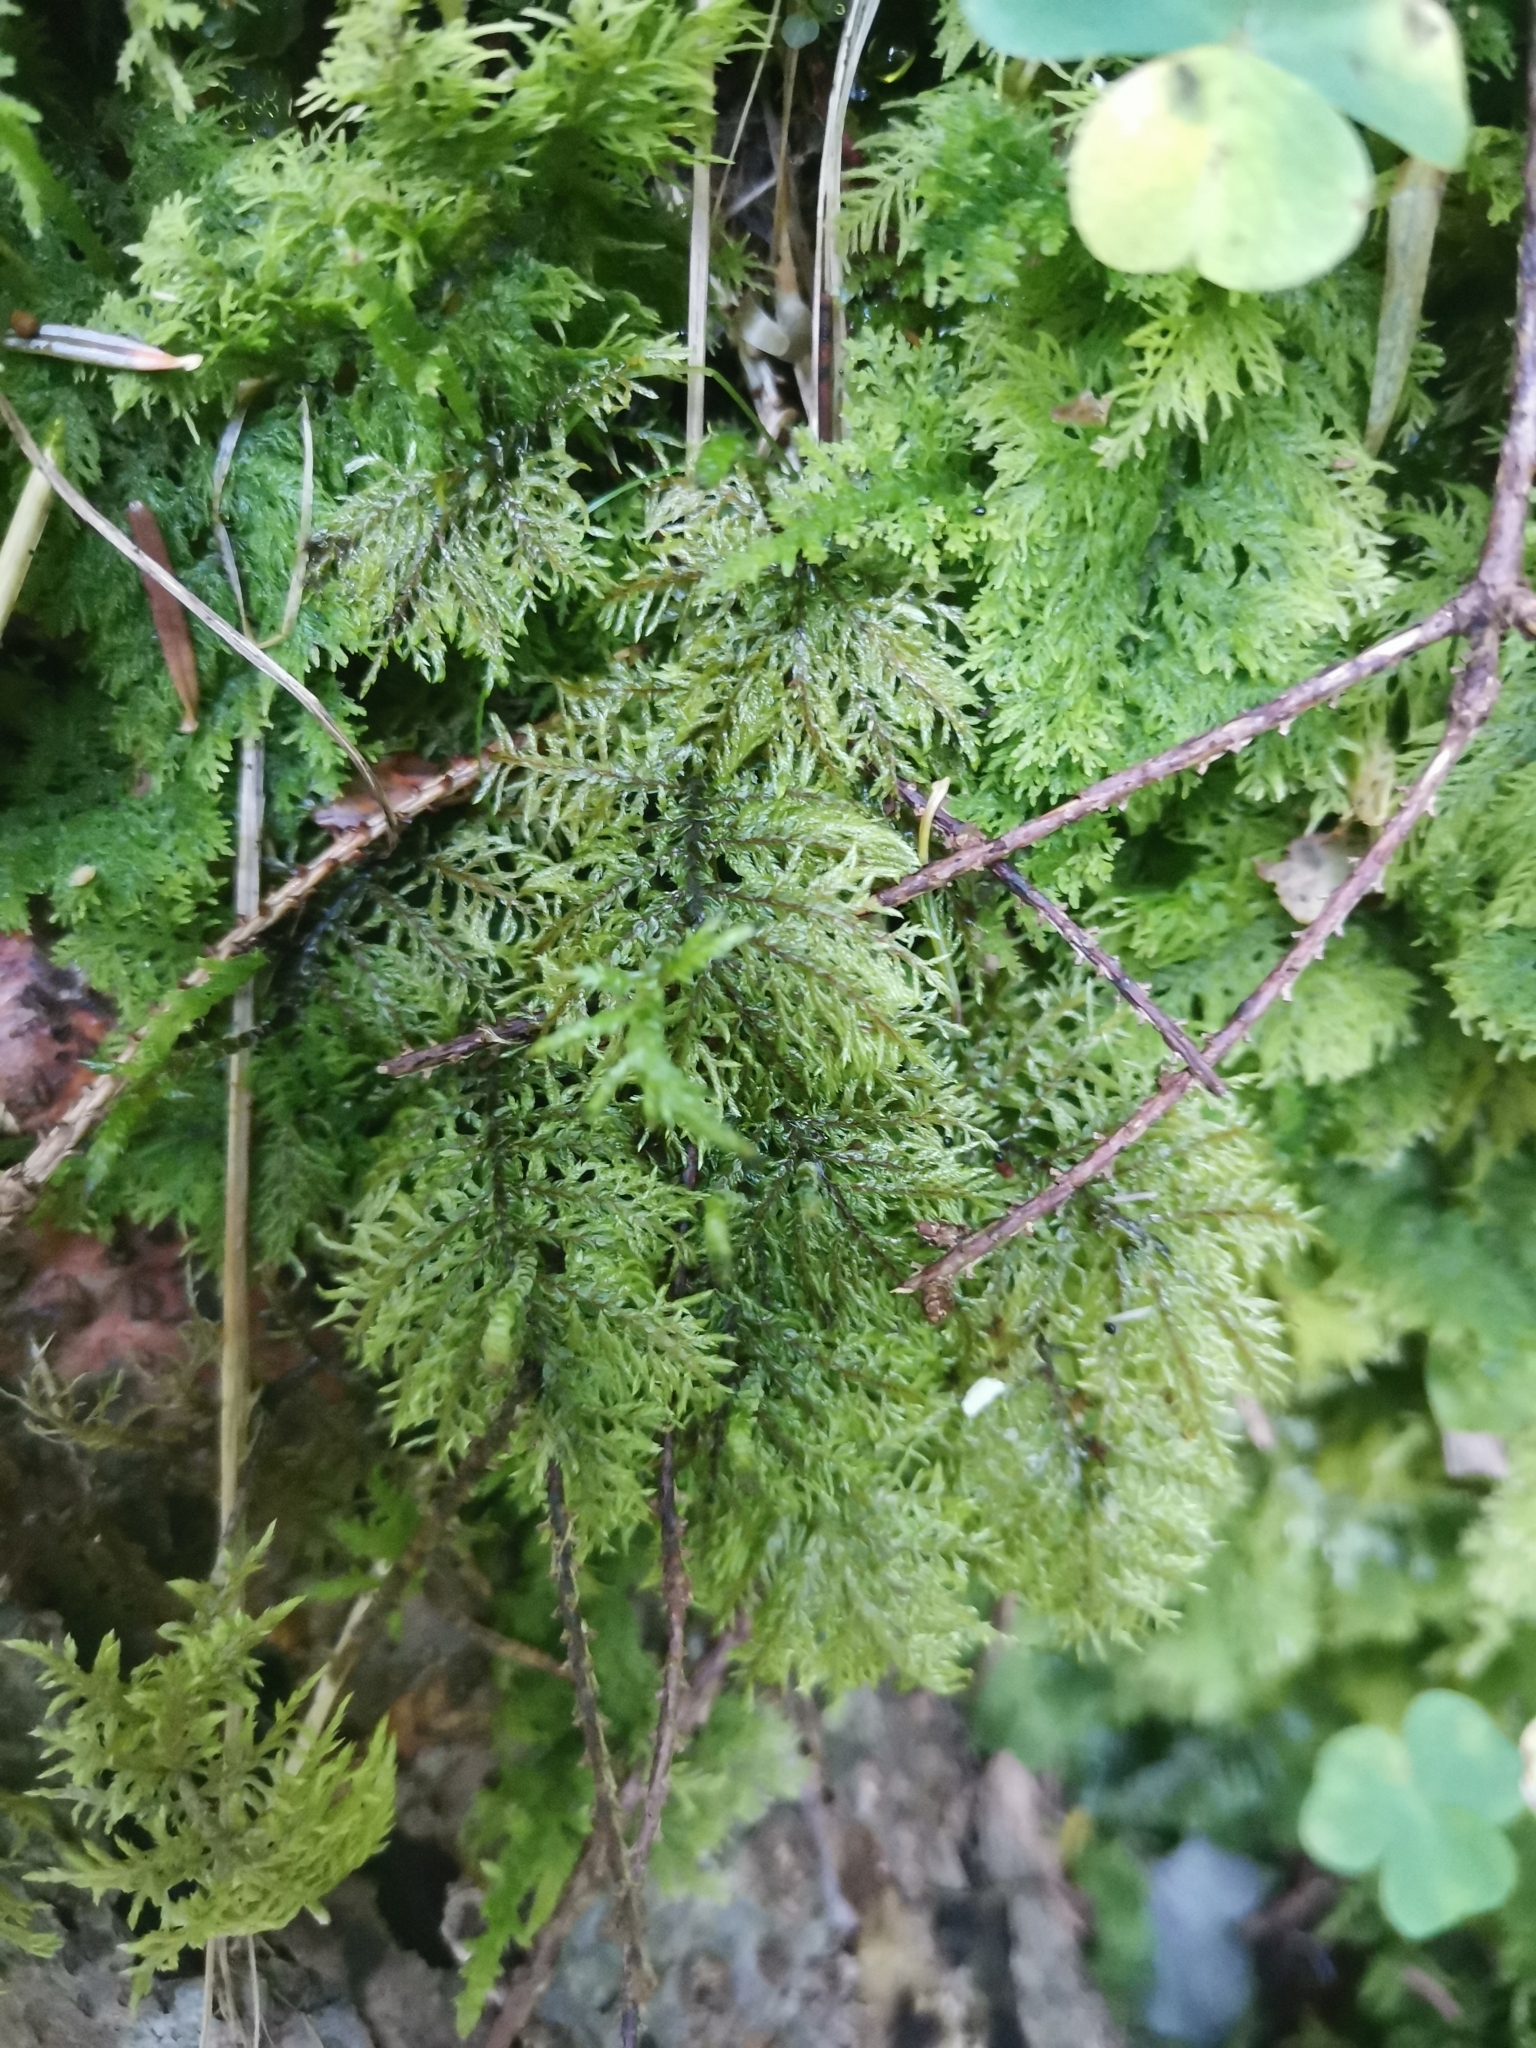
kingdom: Plantae
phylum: Bryophyta
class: Bryopsida
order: Hypnales
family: Hylocomiaceae
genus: Hylocomium
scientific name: Hylocomium splendens
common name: Stairstep moss
